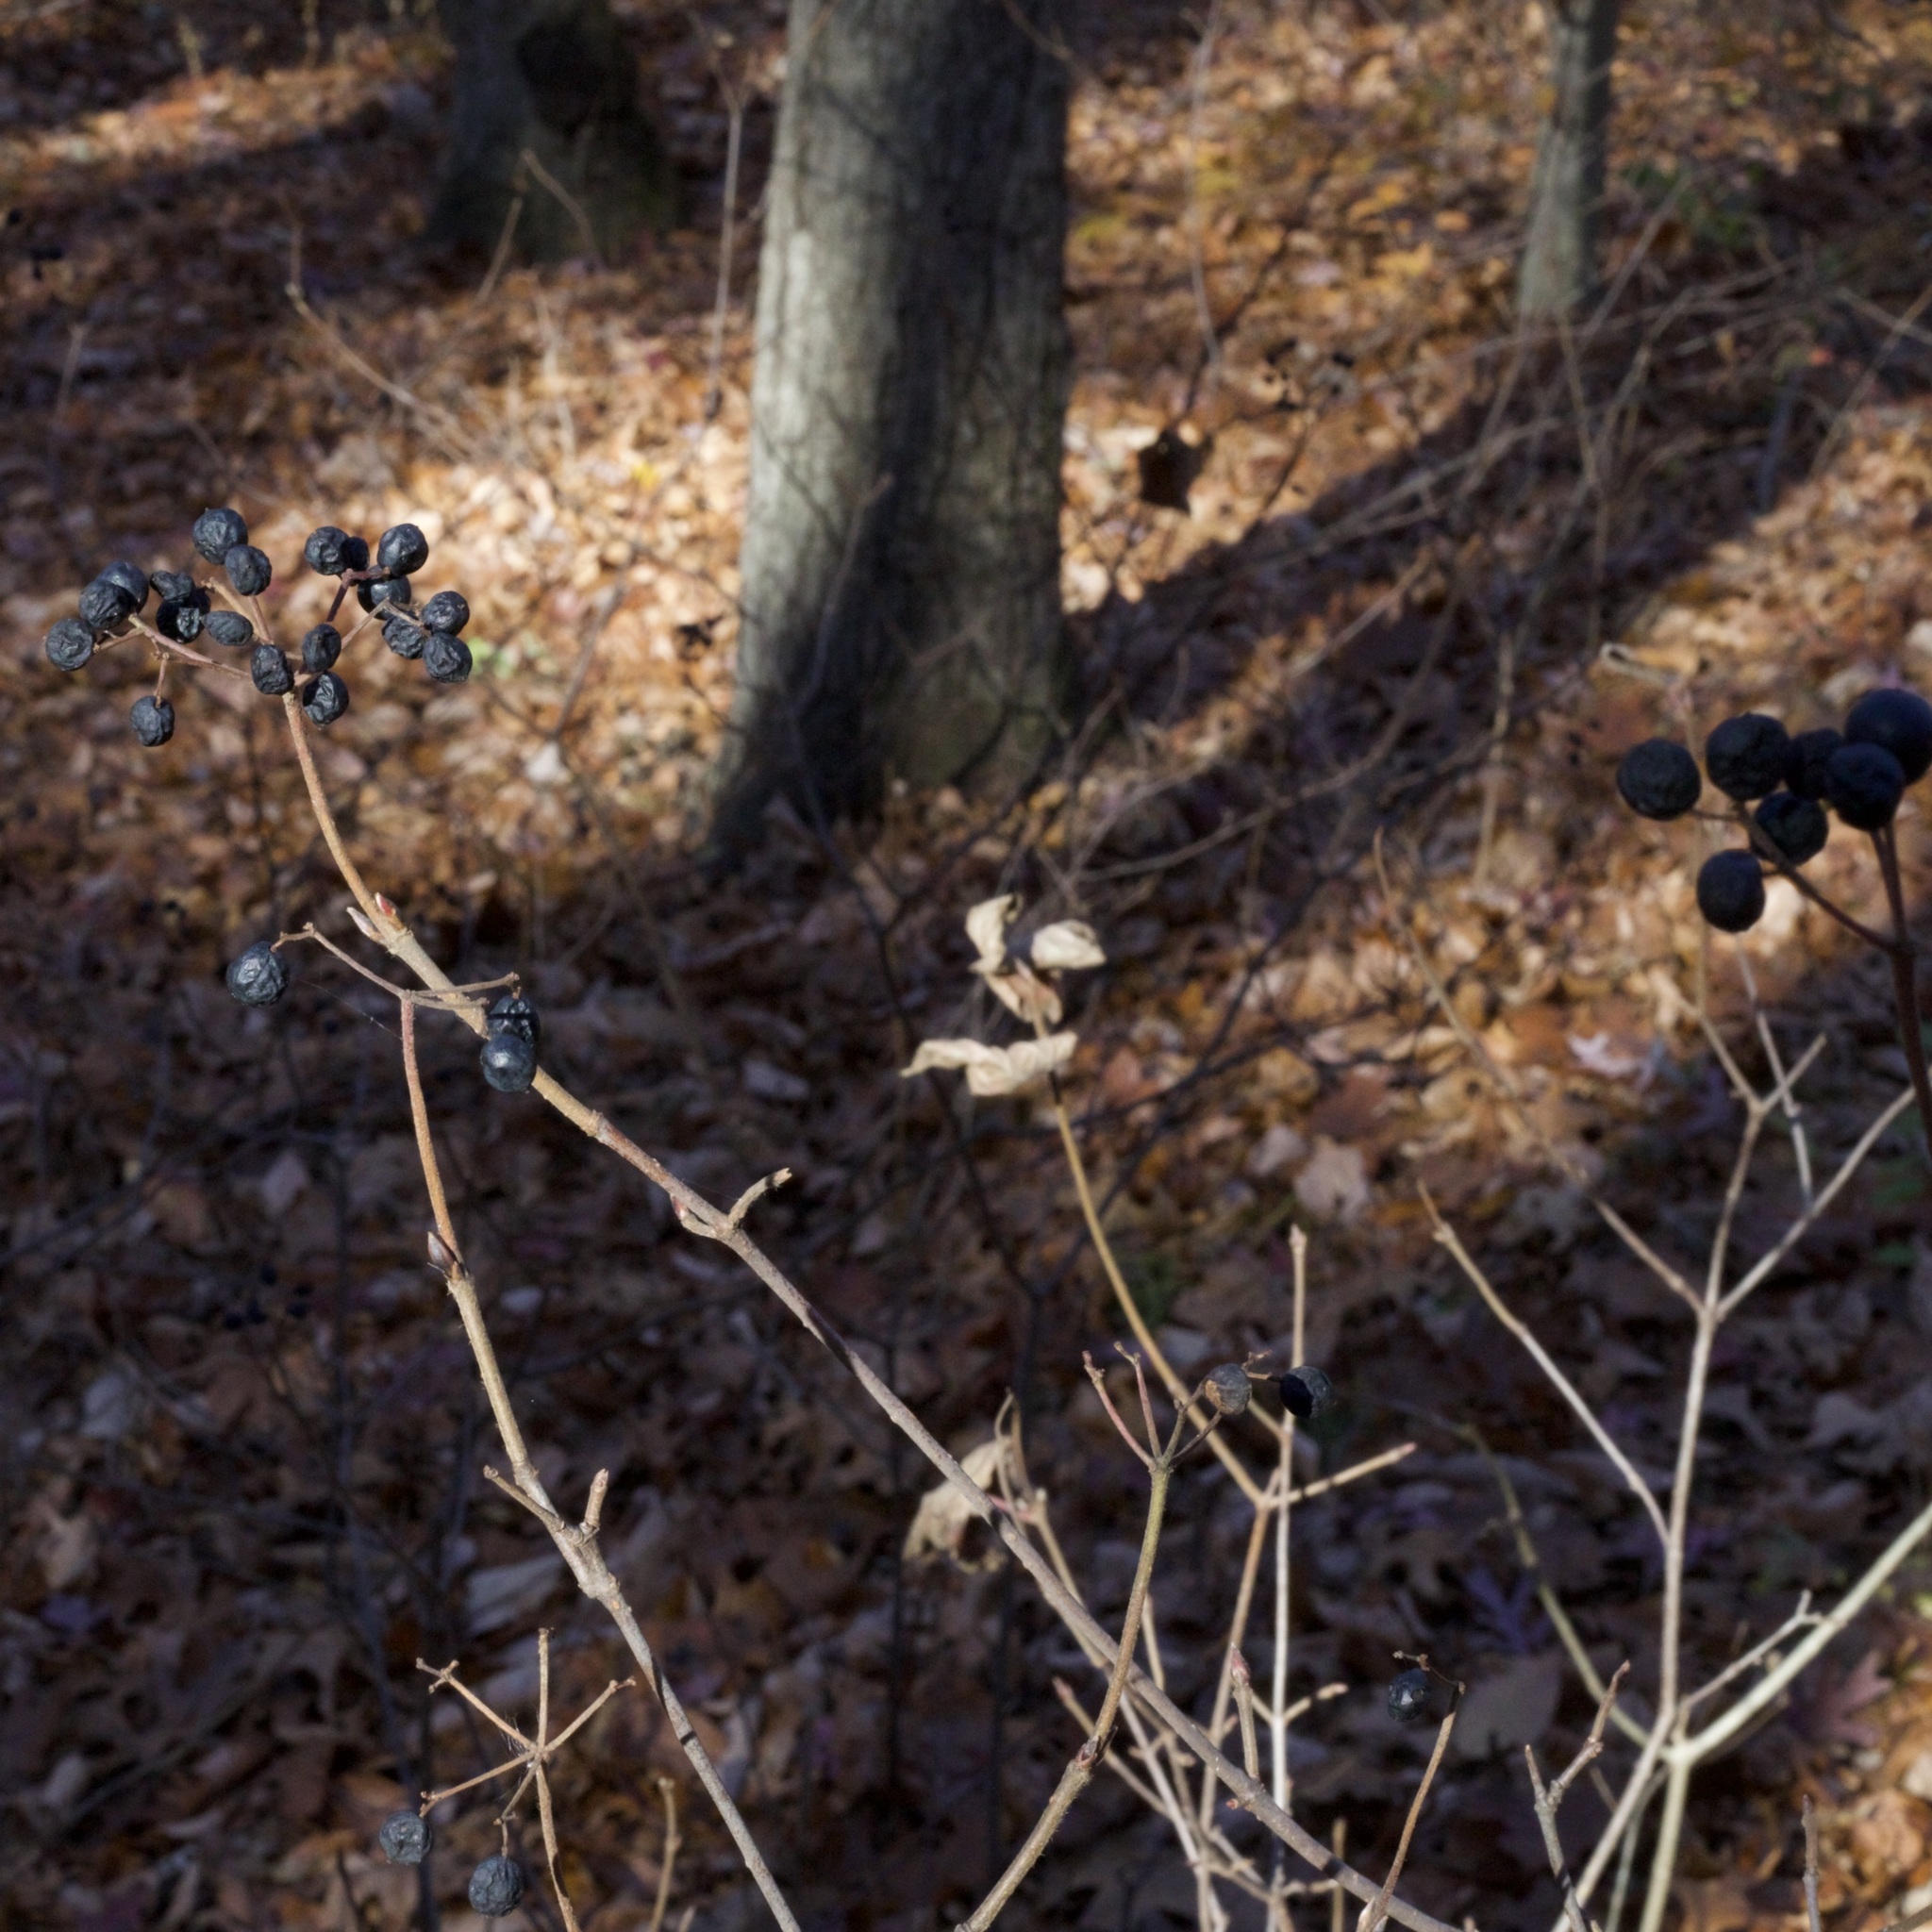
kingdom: Plantae
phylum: Tracheophyta
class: Magnoliopsida
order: Dipsacales
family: Viburnaceae
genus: Viburnum
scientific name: Viburnum acerifolium
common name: Dockmackie
